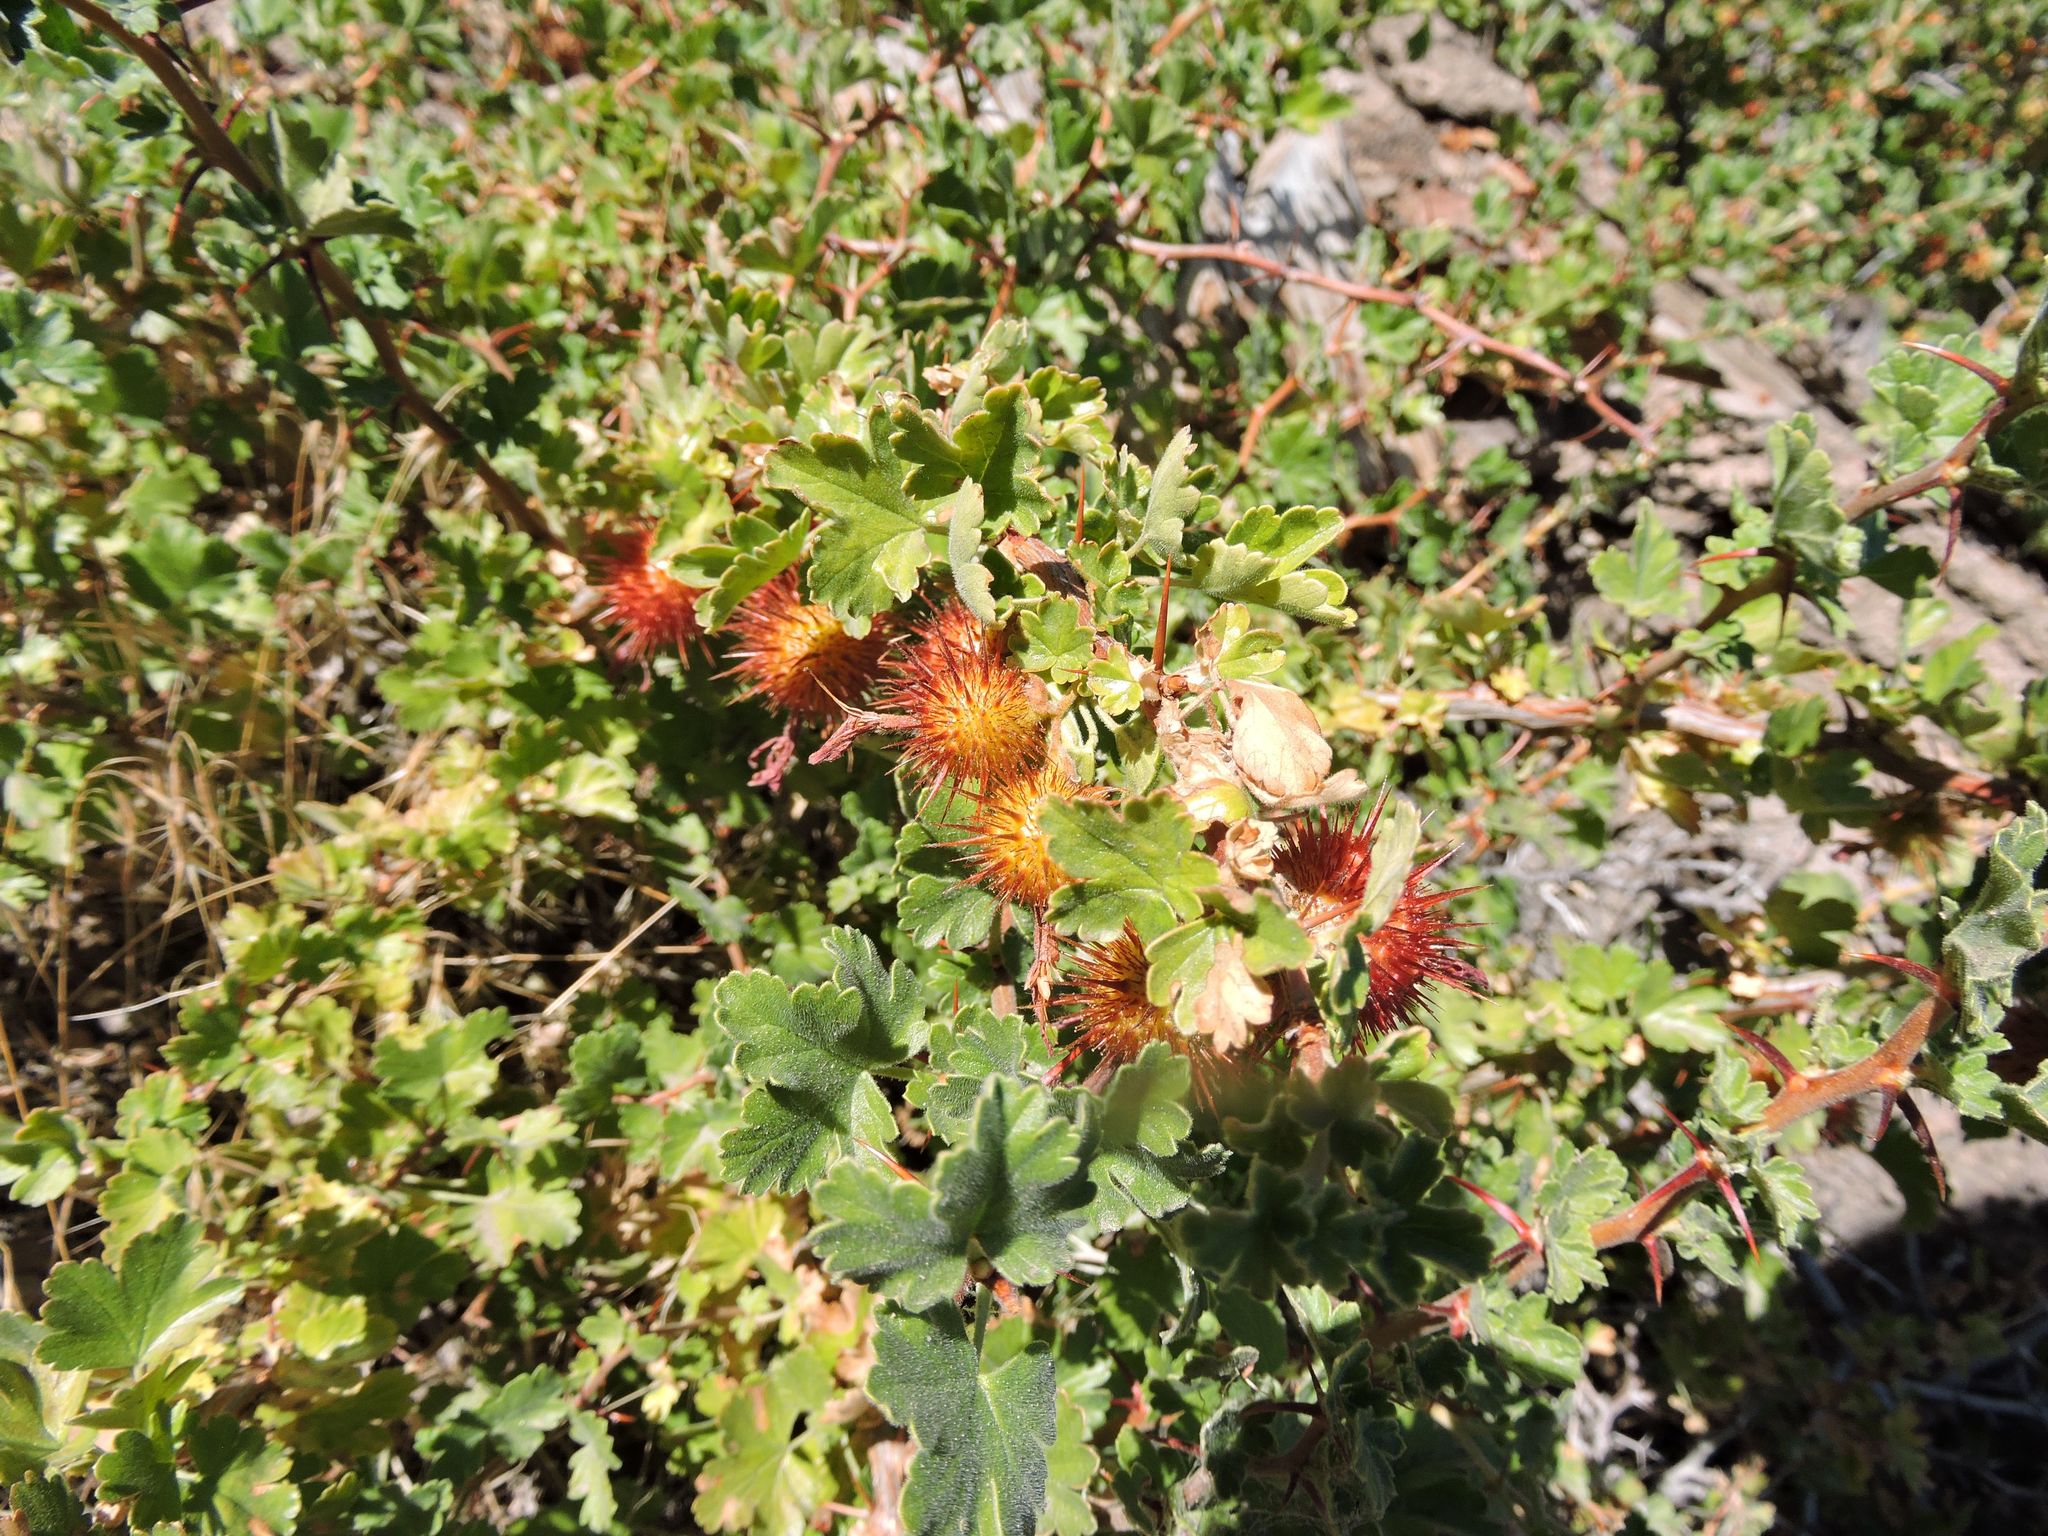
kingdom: Plantae
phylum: Tracheophyta
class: Magnoliopsida
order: Saxifragales
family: Grossulariaceae
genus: Ribes
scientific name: Ribes roezlii
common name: Sierra gooseberry
